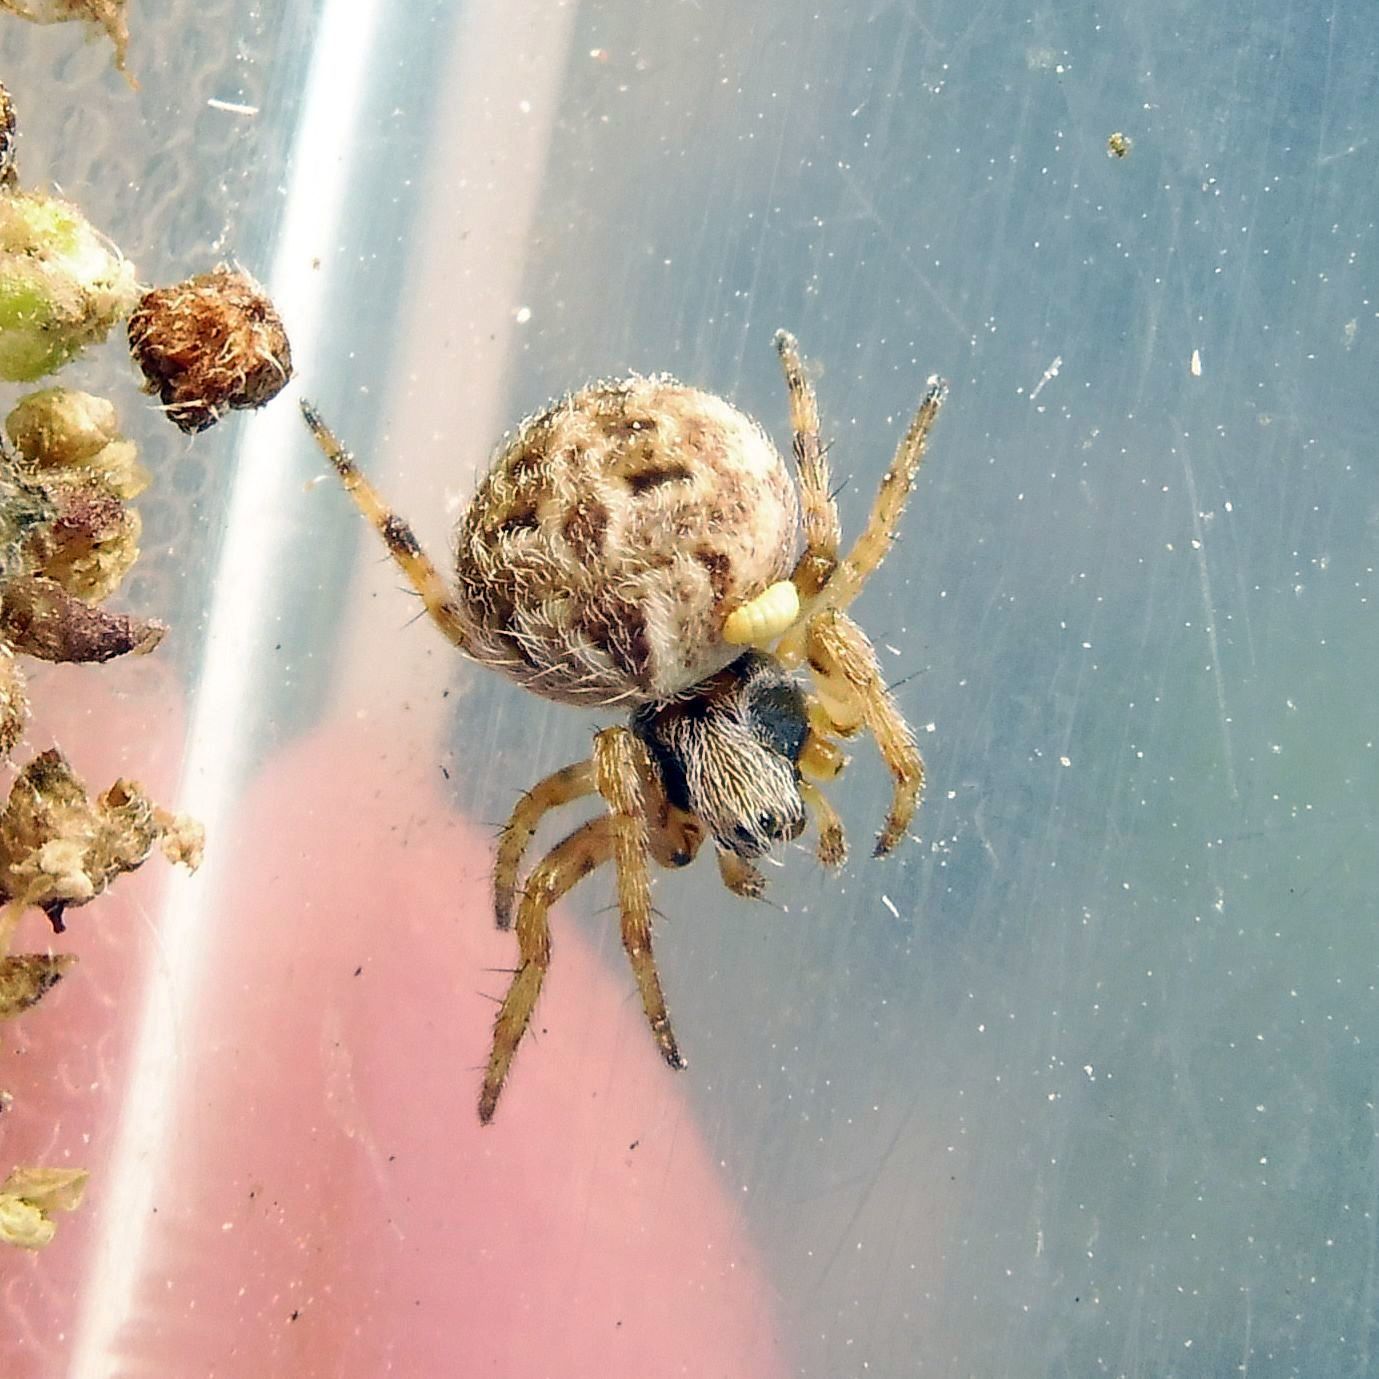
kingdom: Animalia
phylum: Arthropoda
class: Arachnida
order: Araneae
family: Araneidae
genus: Agalenatea
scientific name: Agalenatea redii
